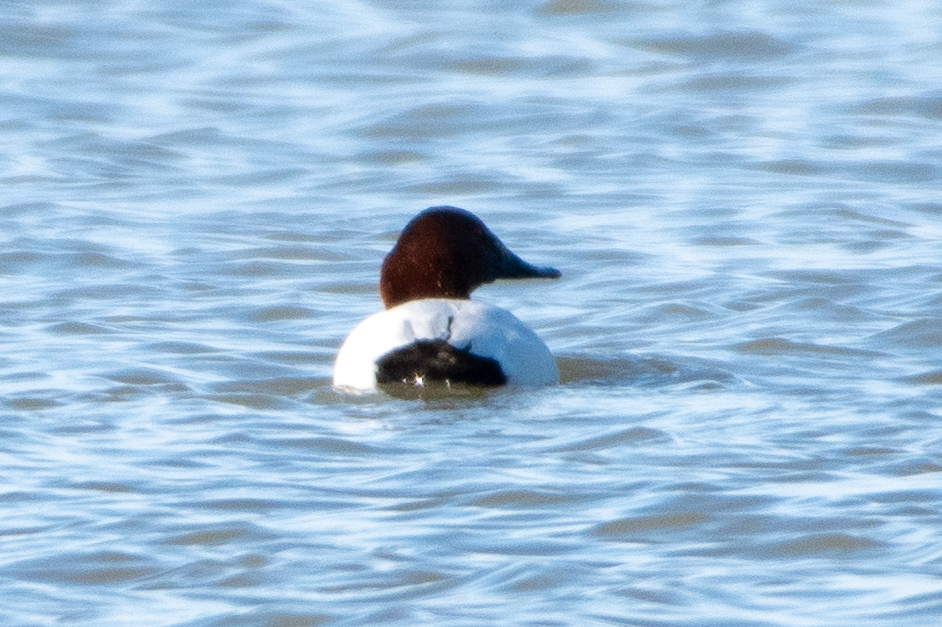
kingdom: Animalia
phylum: Chordata
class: Aves
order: Anseriformes
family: Anatidae
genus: Aythya
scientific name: Aythya valisineria
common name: Canvasback
